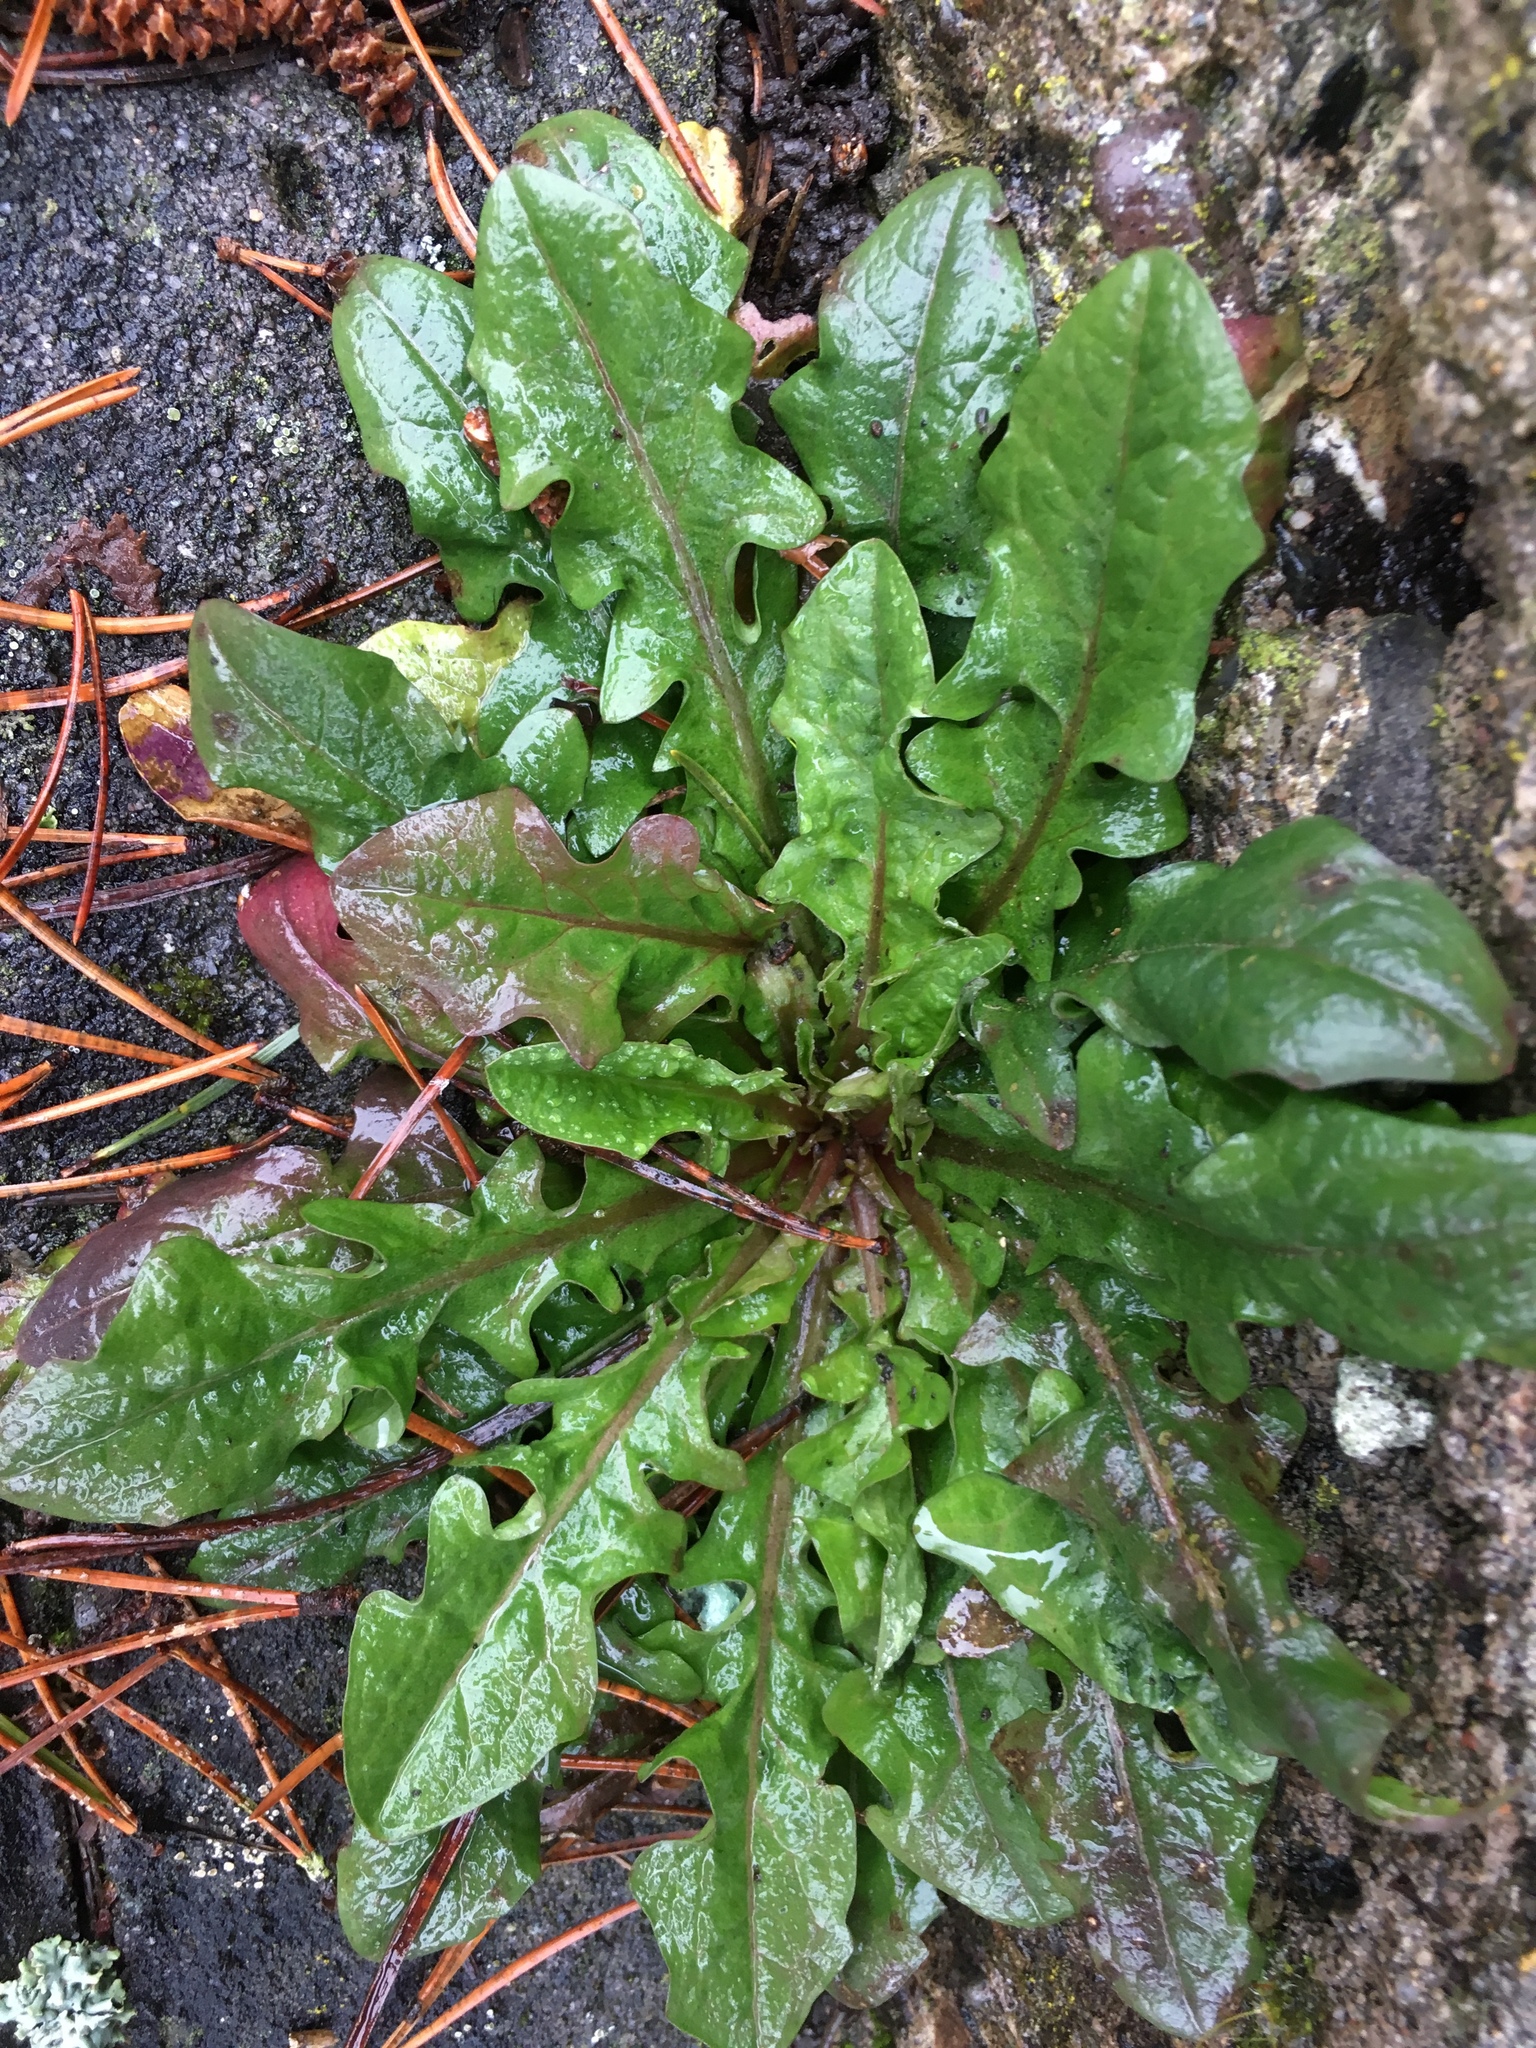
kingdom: Plantae
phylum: Tracheophyta
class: Magnoliopsida
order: Asterales
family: Asteraceae
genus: Taraxacum
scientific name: Taraxacum officinale
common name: Common dandelion
